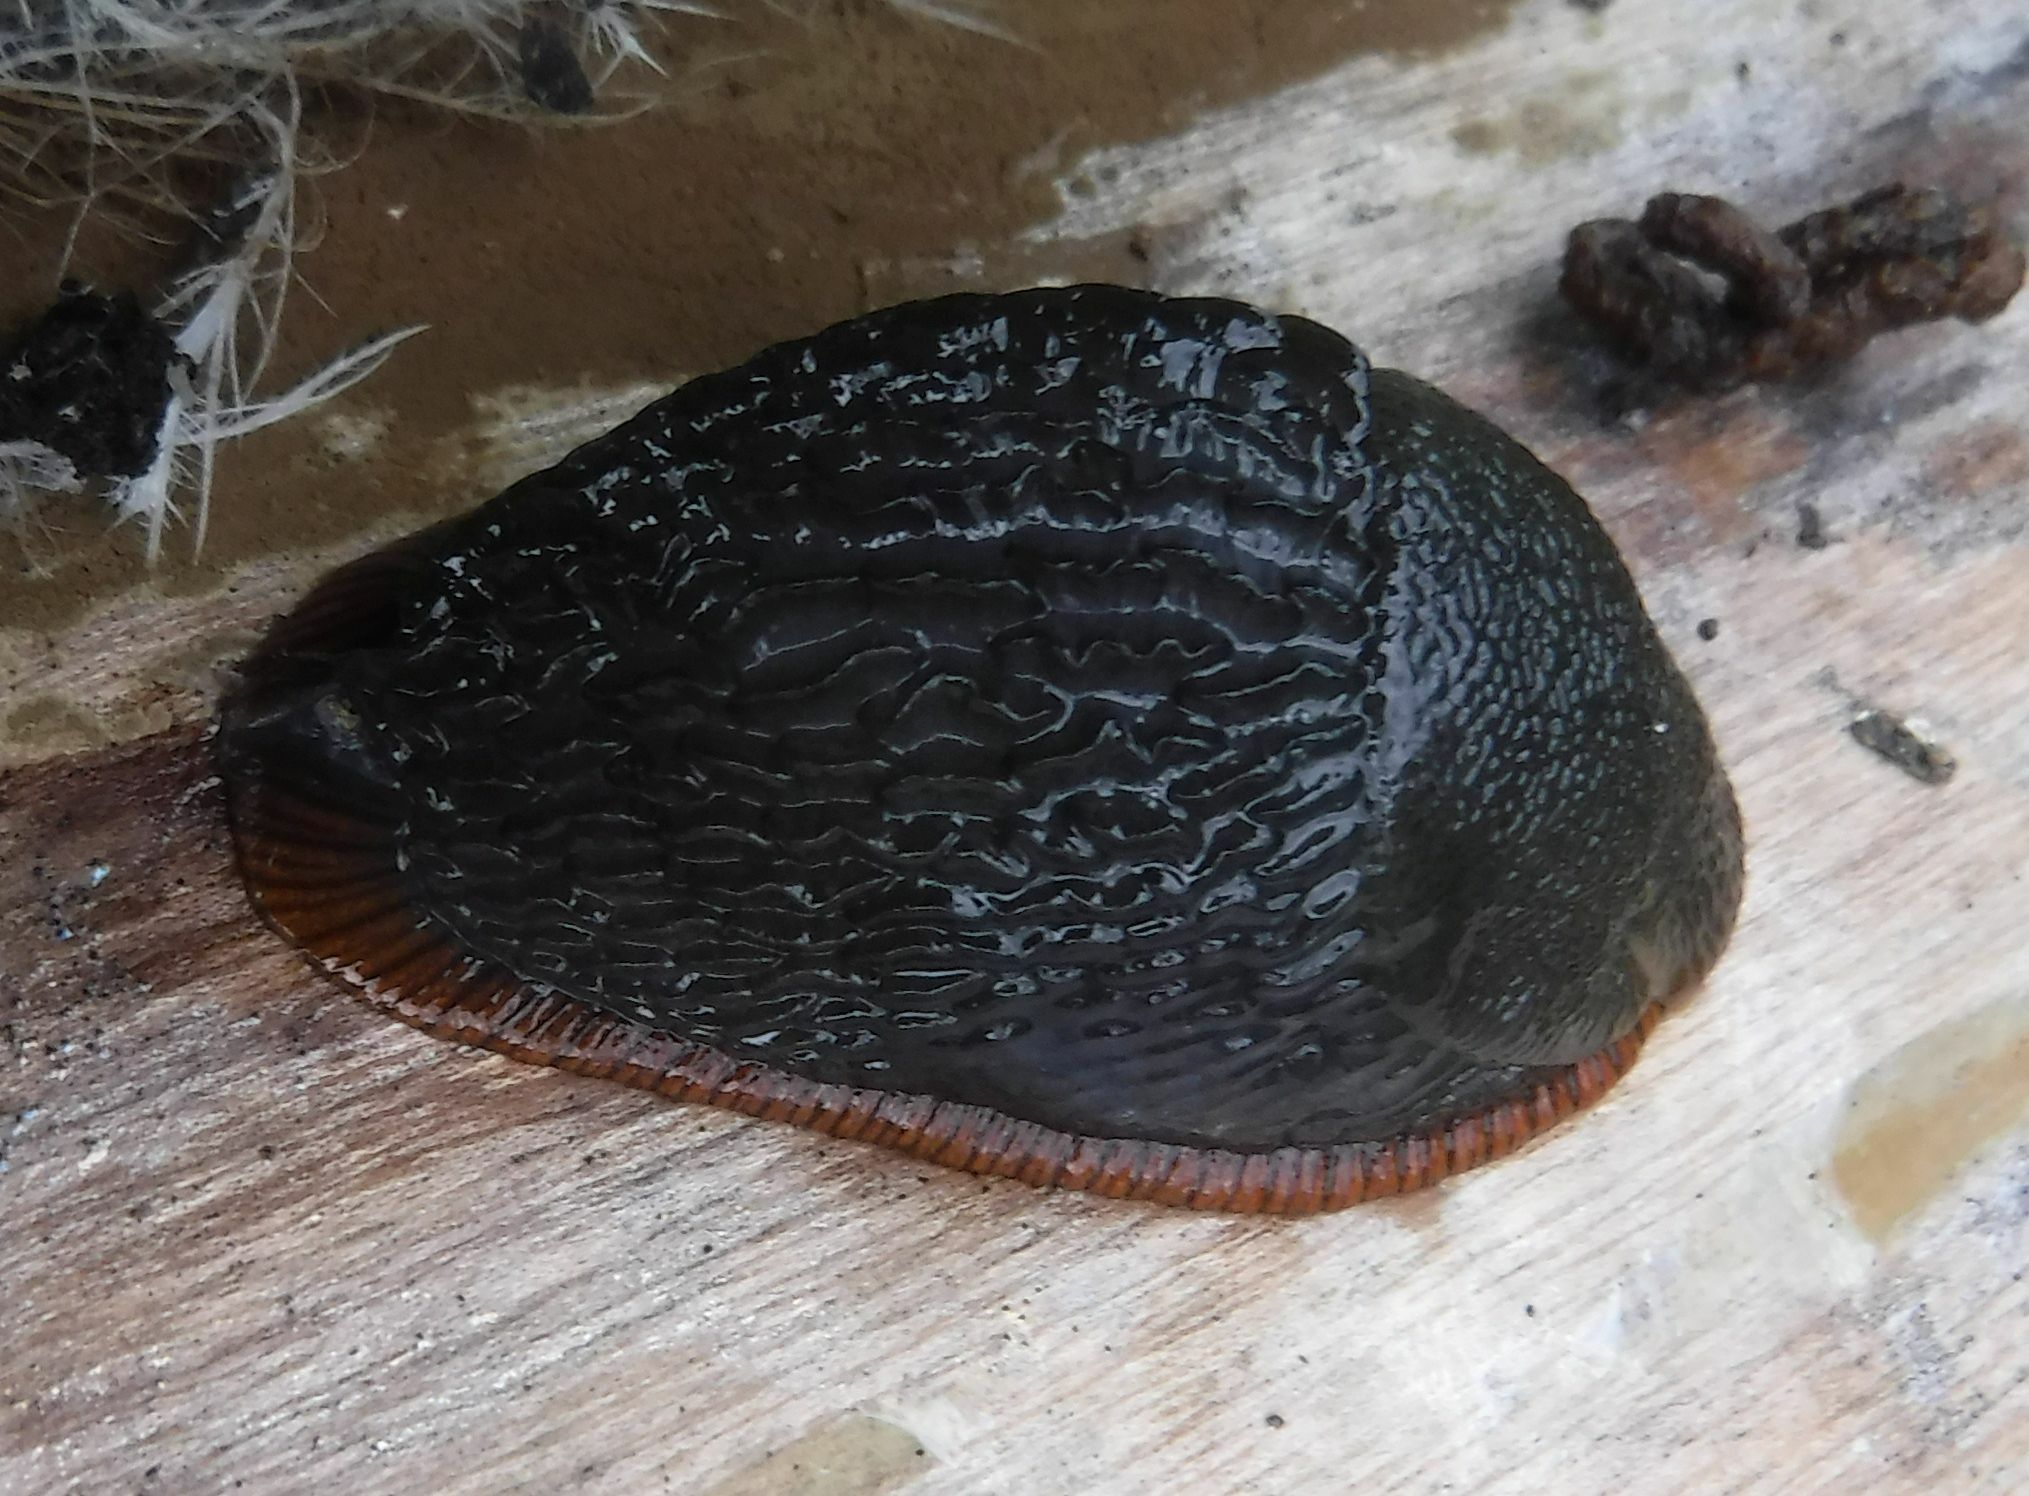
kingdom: Animalia
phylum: Mollusca
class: Gastropoda
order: Stylommatophora
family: Arionidae
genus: Arion
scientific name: Arion ater
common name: Black arion
